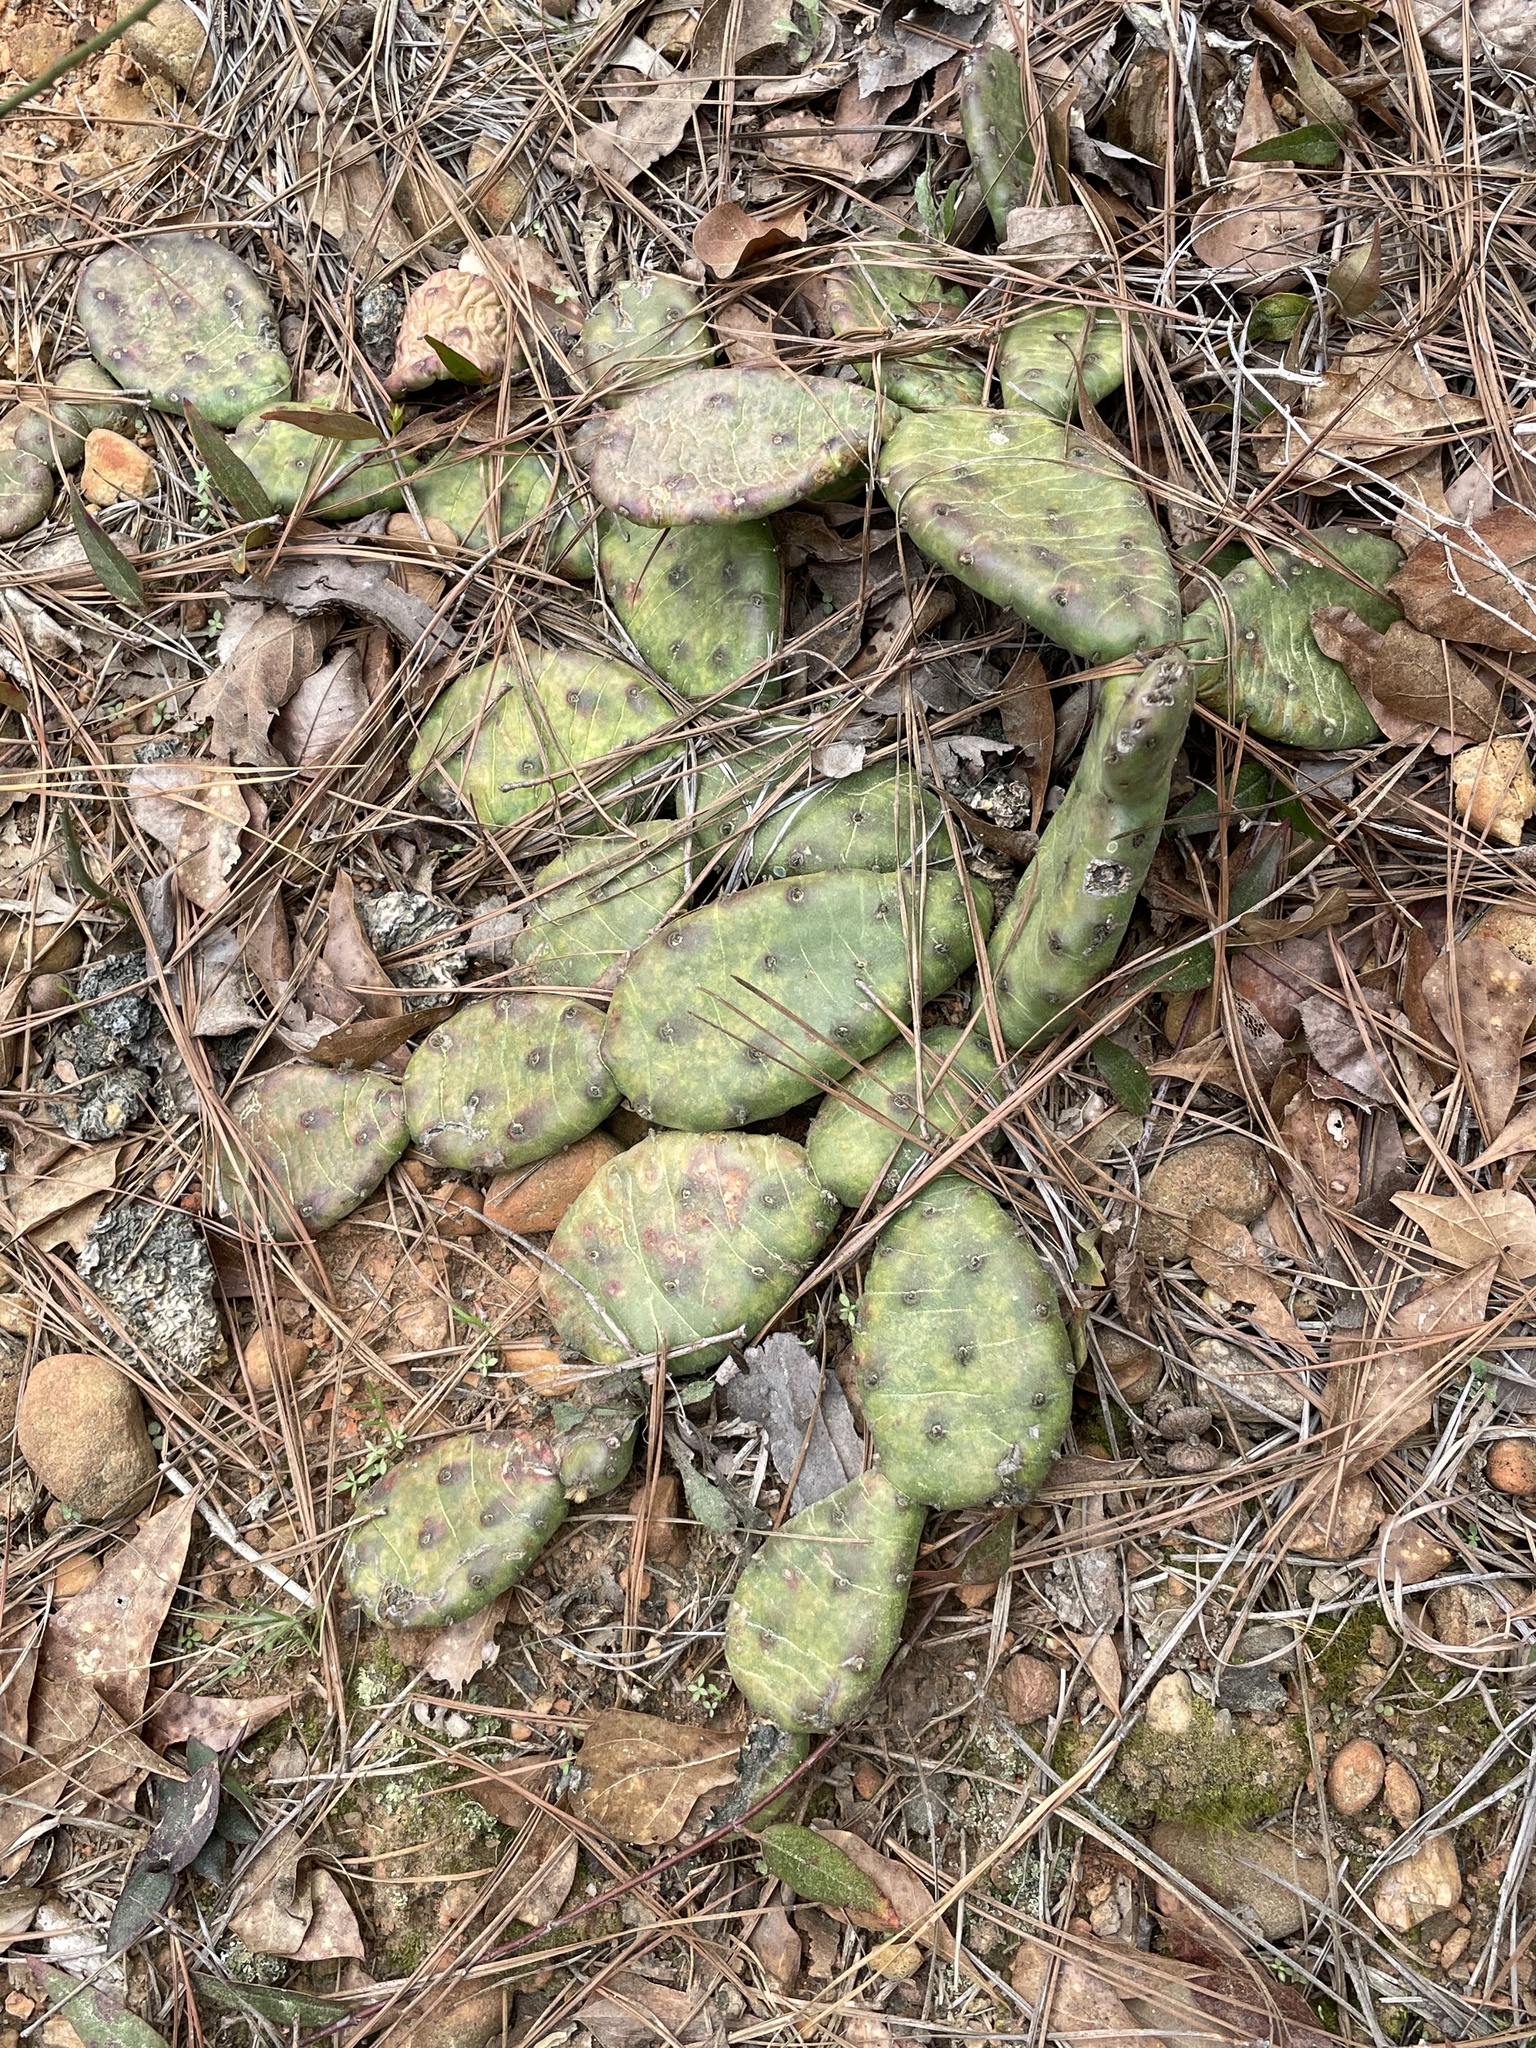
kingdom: Plantae
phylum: Tracheophyta
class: Magnoliopsida
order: Caryophyllales
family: Cactaceae
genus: Opuntia
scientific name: Opuntia mesacantha
